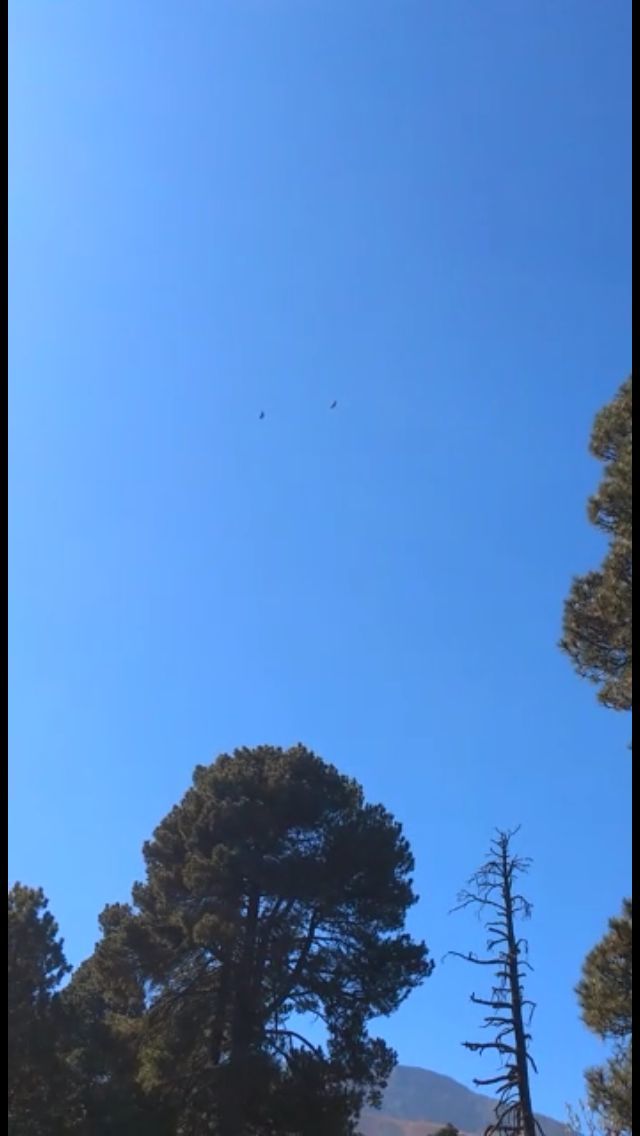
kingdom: Animalia
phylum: Chordata
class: Aves
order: Accipitriformes
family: Accipitridae
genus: Buteo
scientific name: Buteo jamaicensis
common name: Red-tailed hawk
